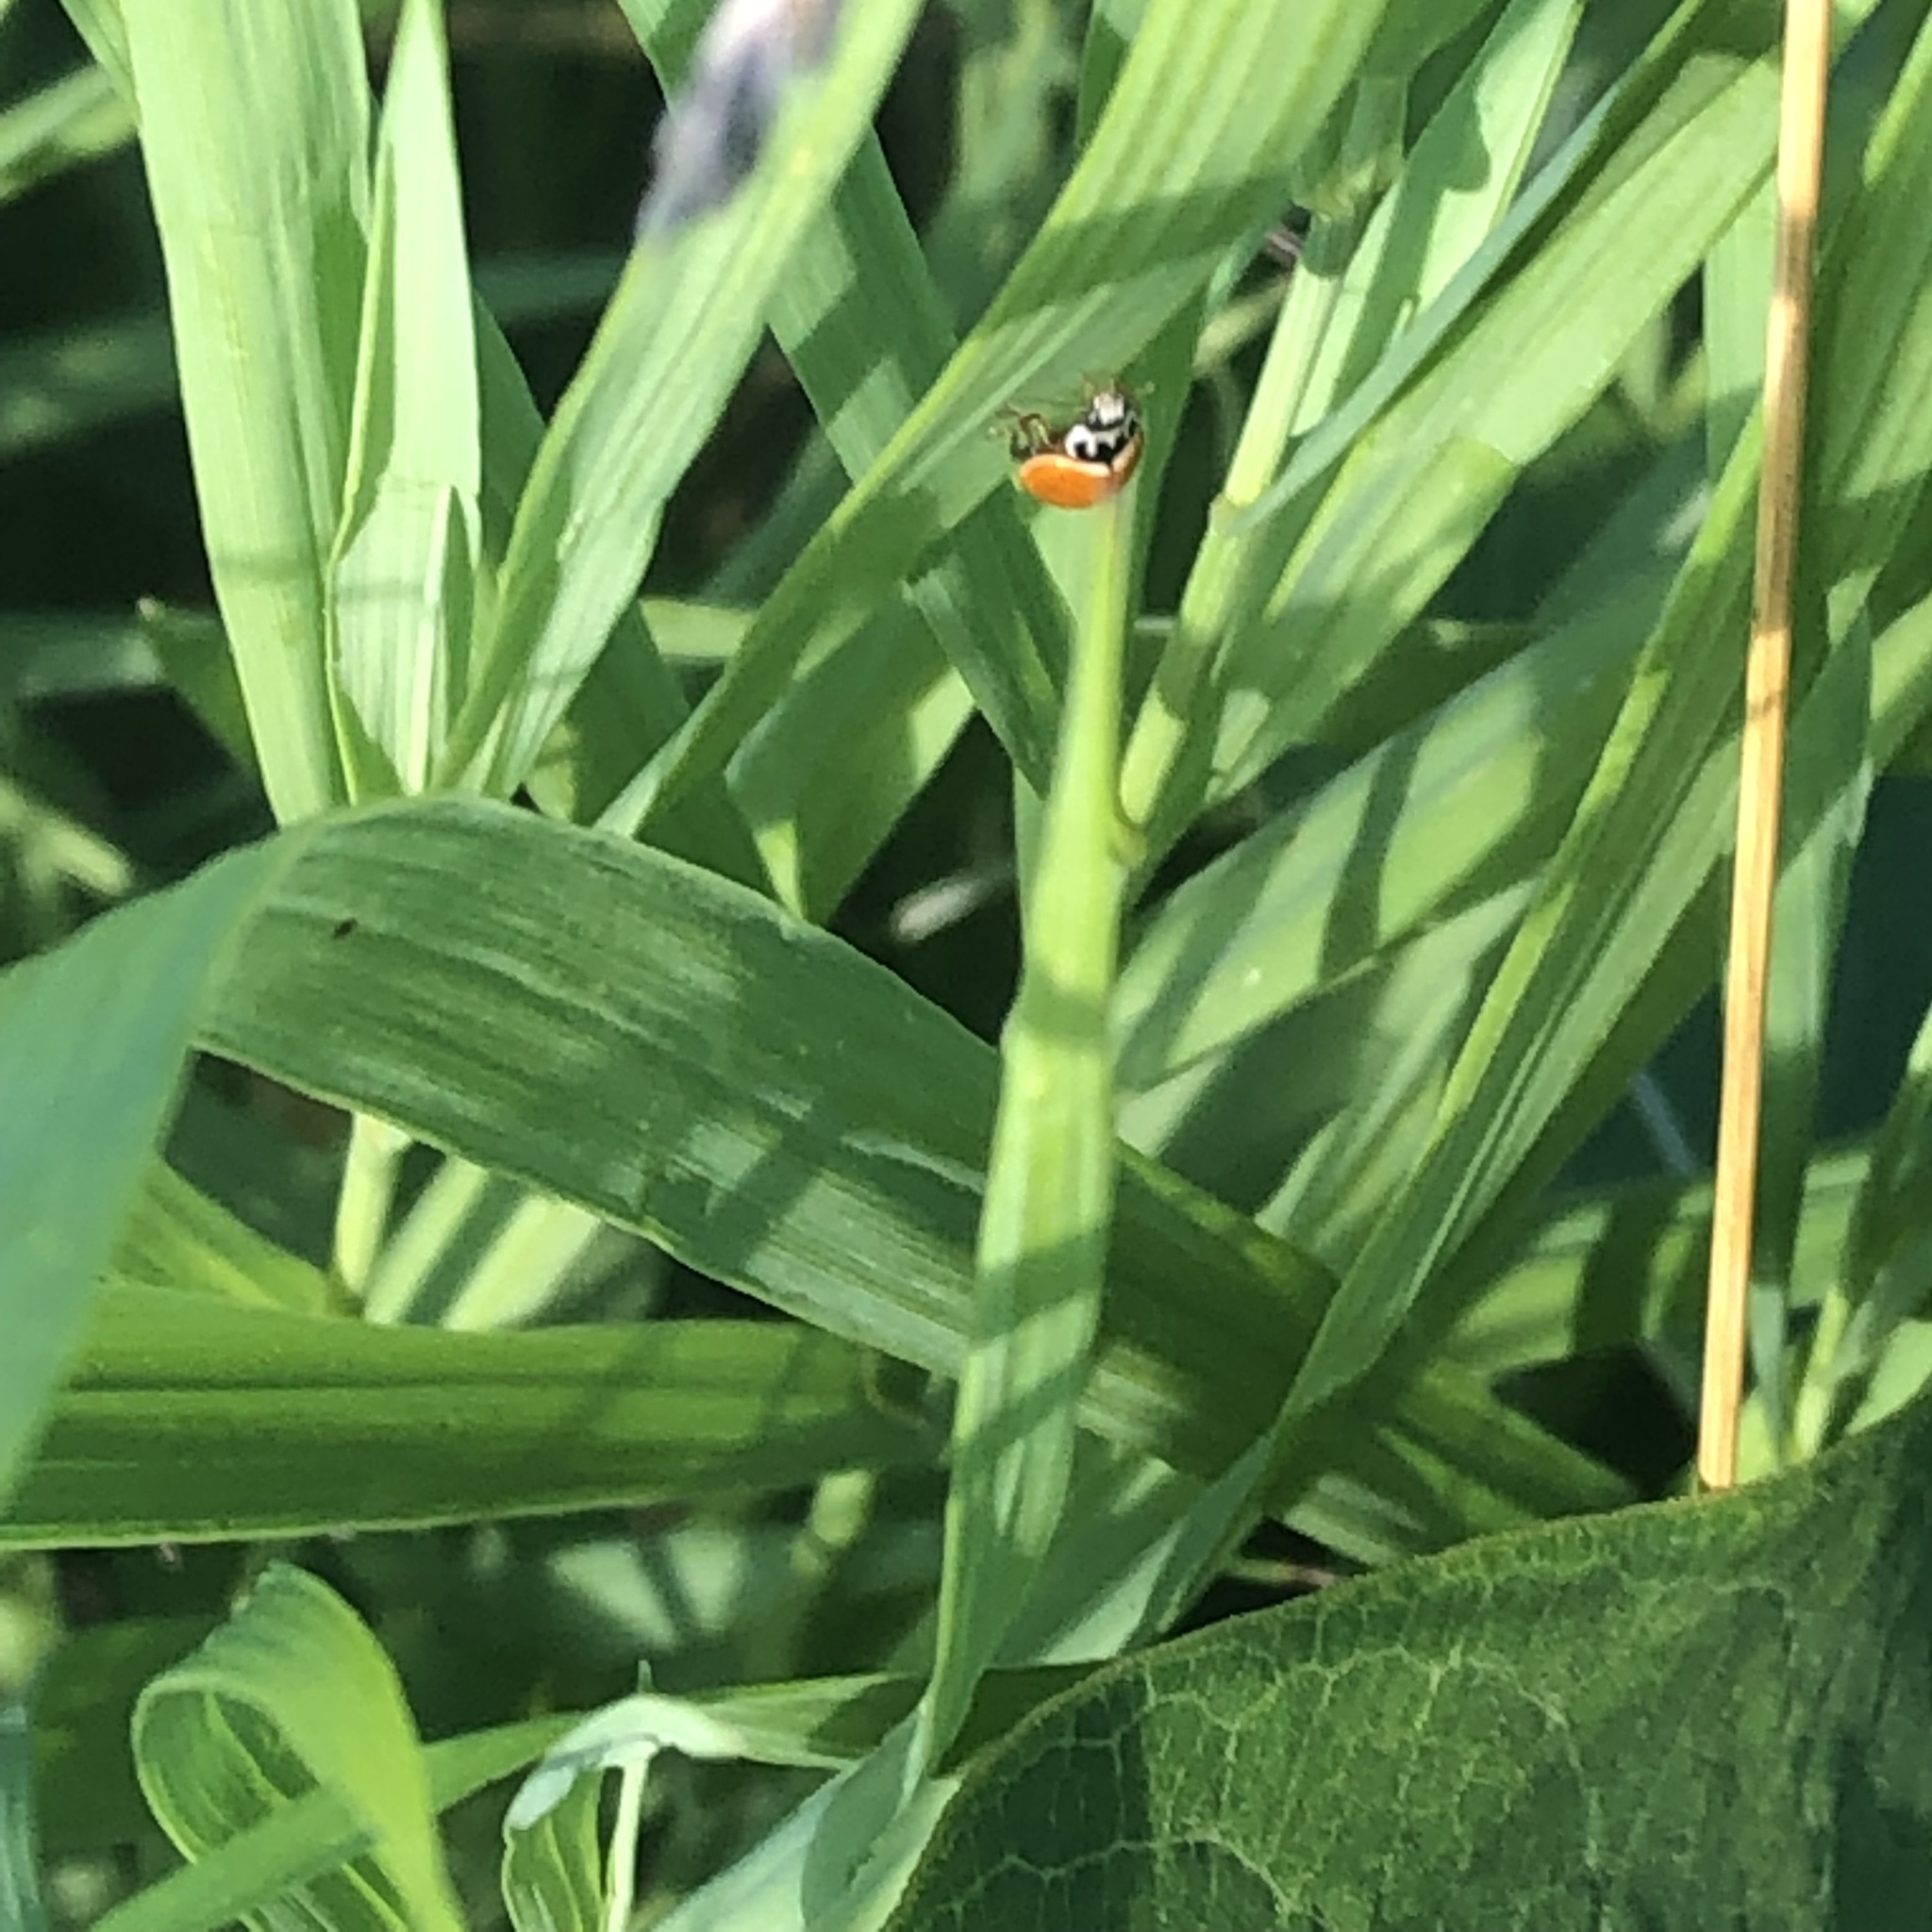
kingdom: Animalia
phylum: Arthropoda
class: Insecta
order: Coleoptera
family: Coccinellidae
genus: Cycloneda
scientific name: Cycloneda munda
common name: Polished lady beetle
